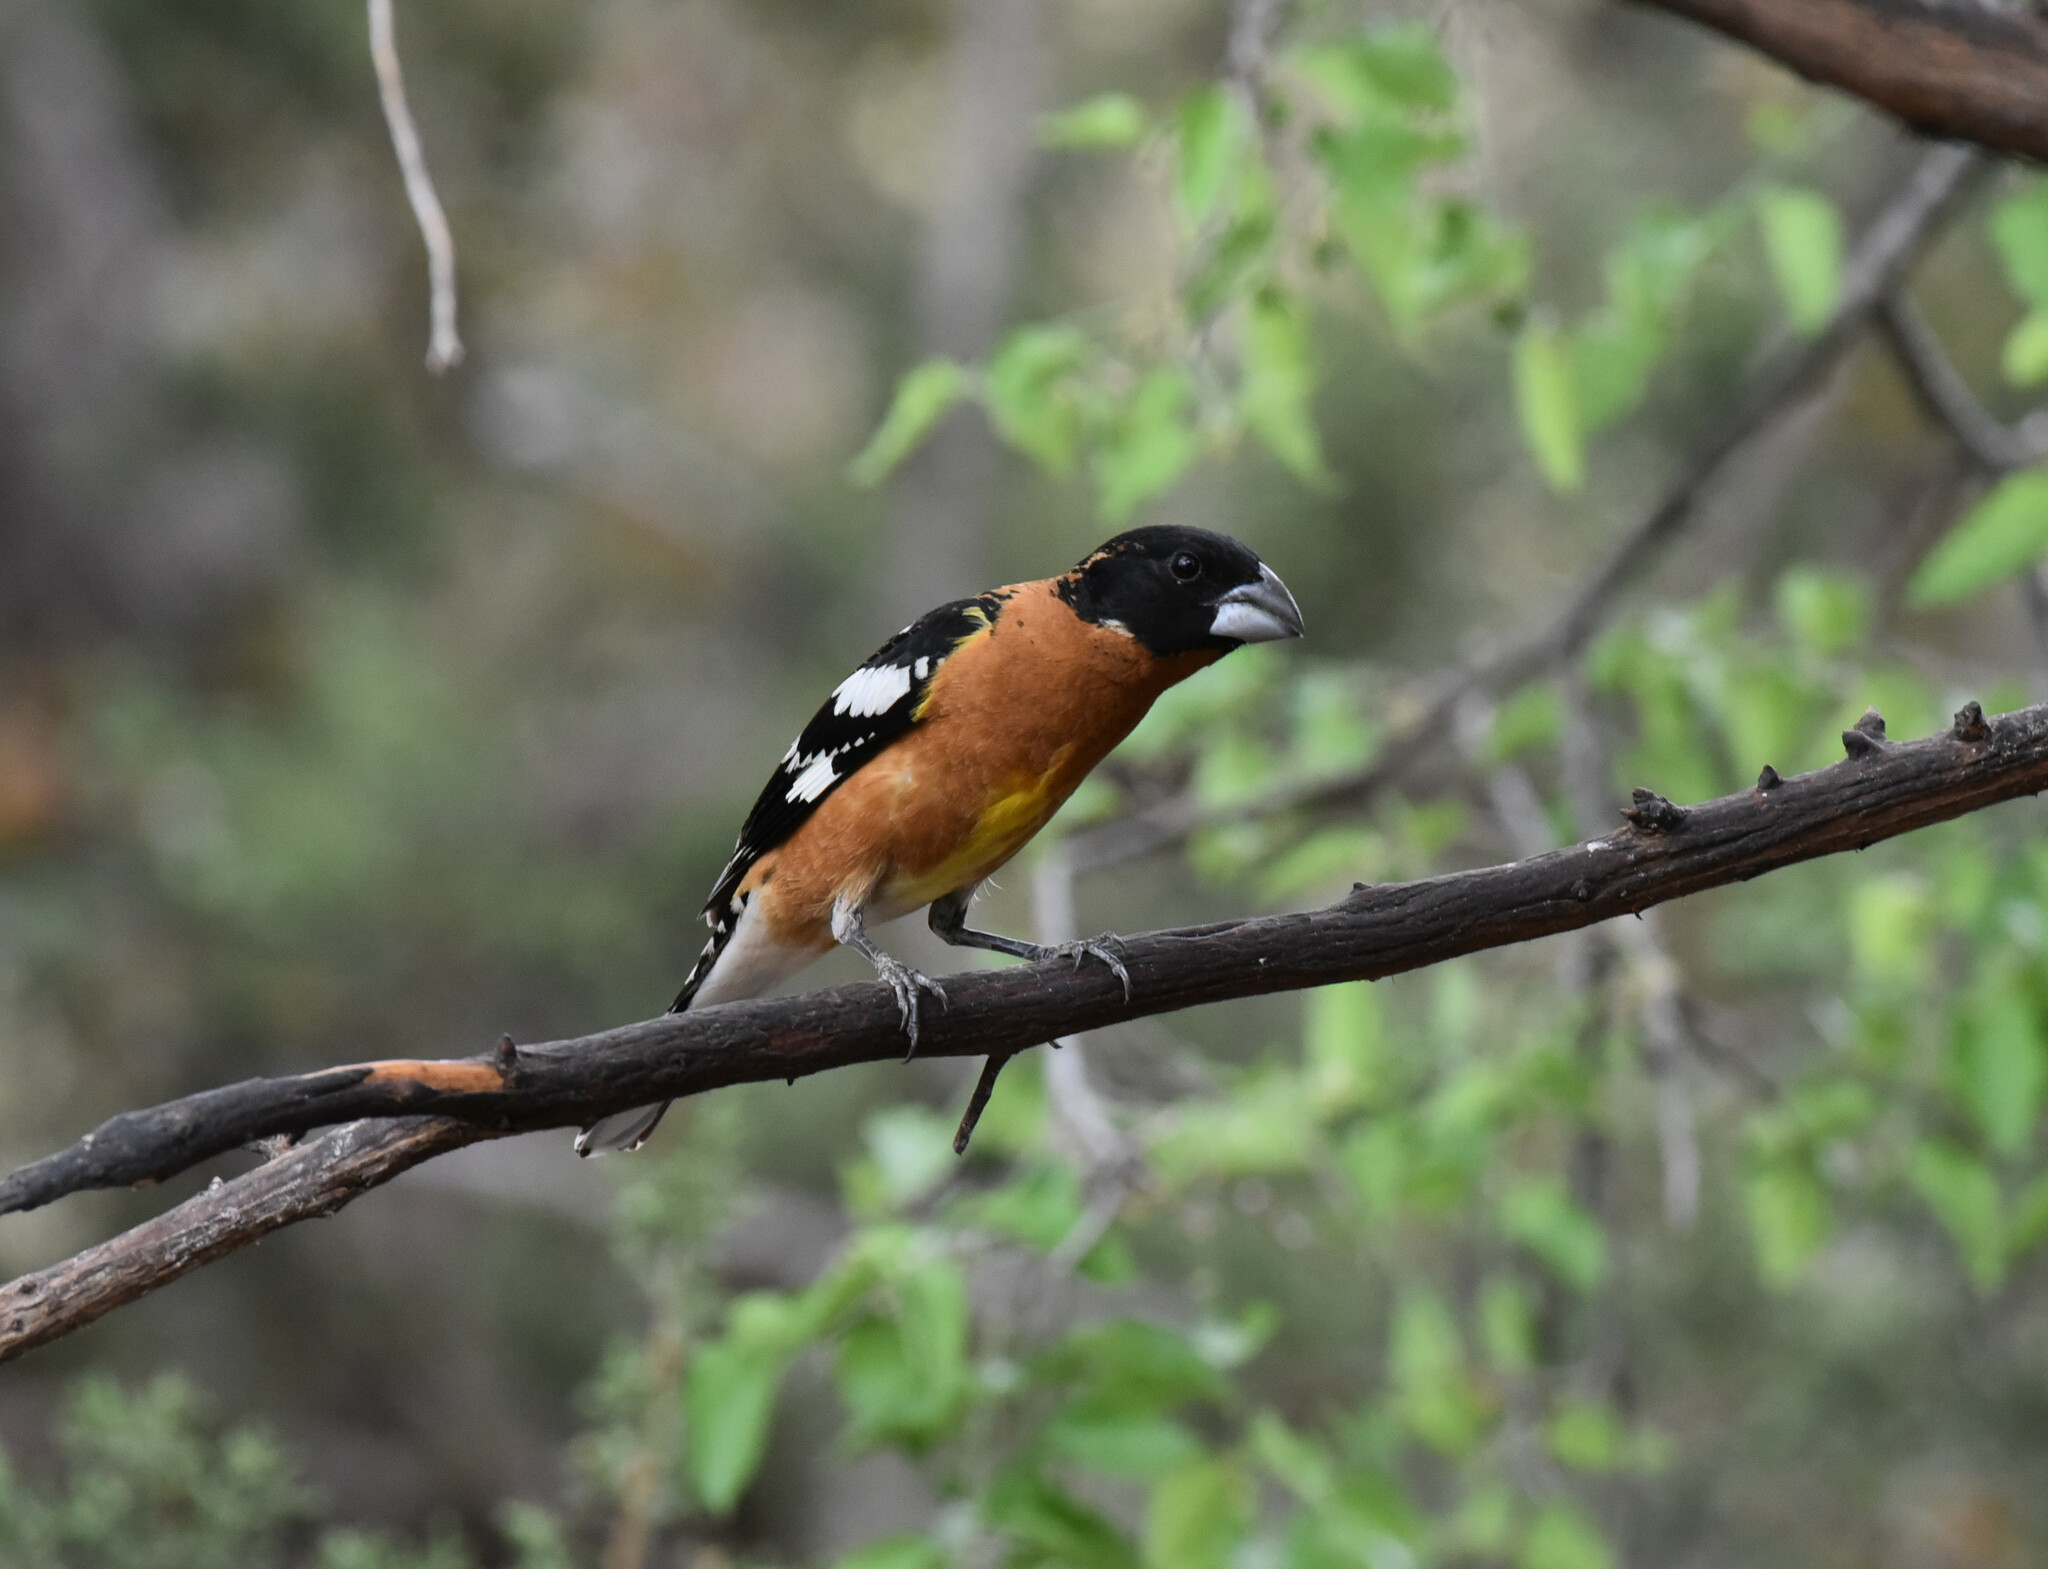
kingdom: Animalia
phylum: Chordata
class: Aves
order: Passeriformes
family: Cardinalidae
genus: Pheucticus
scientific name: Pheucticus melanocephalus
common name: Black-headed grosbeak
